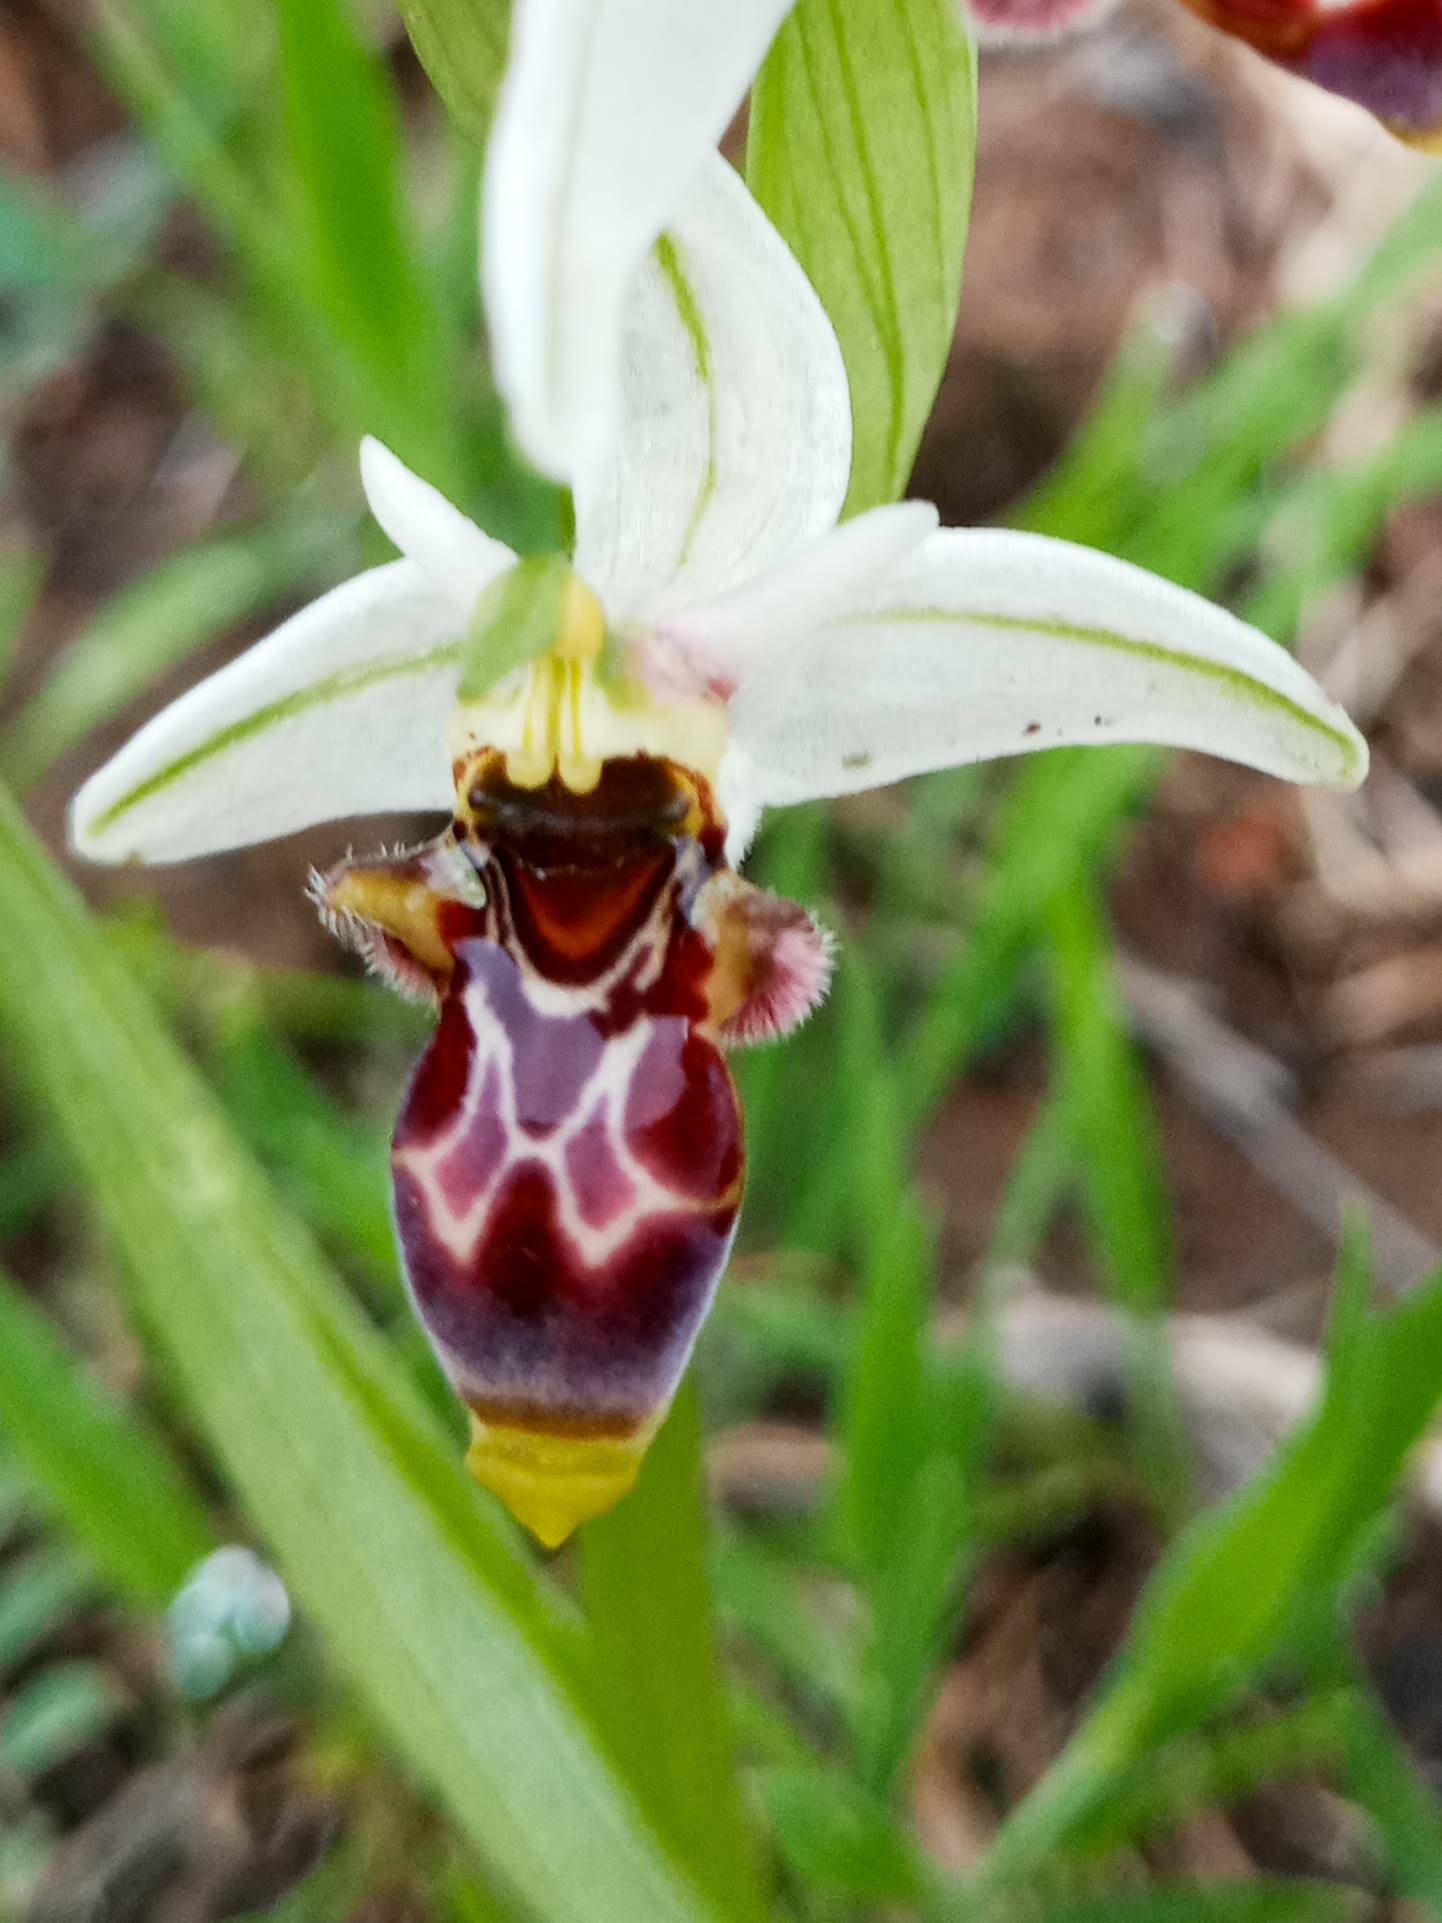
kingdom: Plantae
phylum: Tracheophyta
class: Liliopsida
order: Asparagales
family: Orchidaceae
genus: Ophrys
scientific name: Ophrys scolopax
